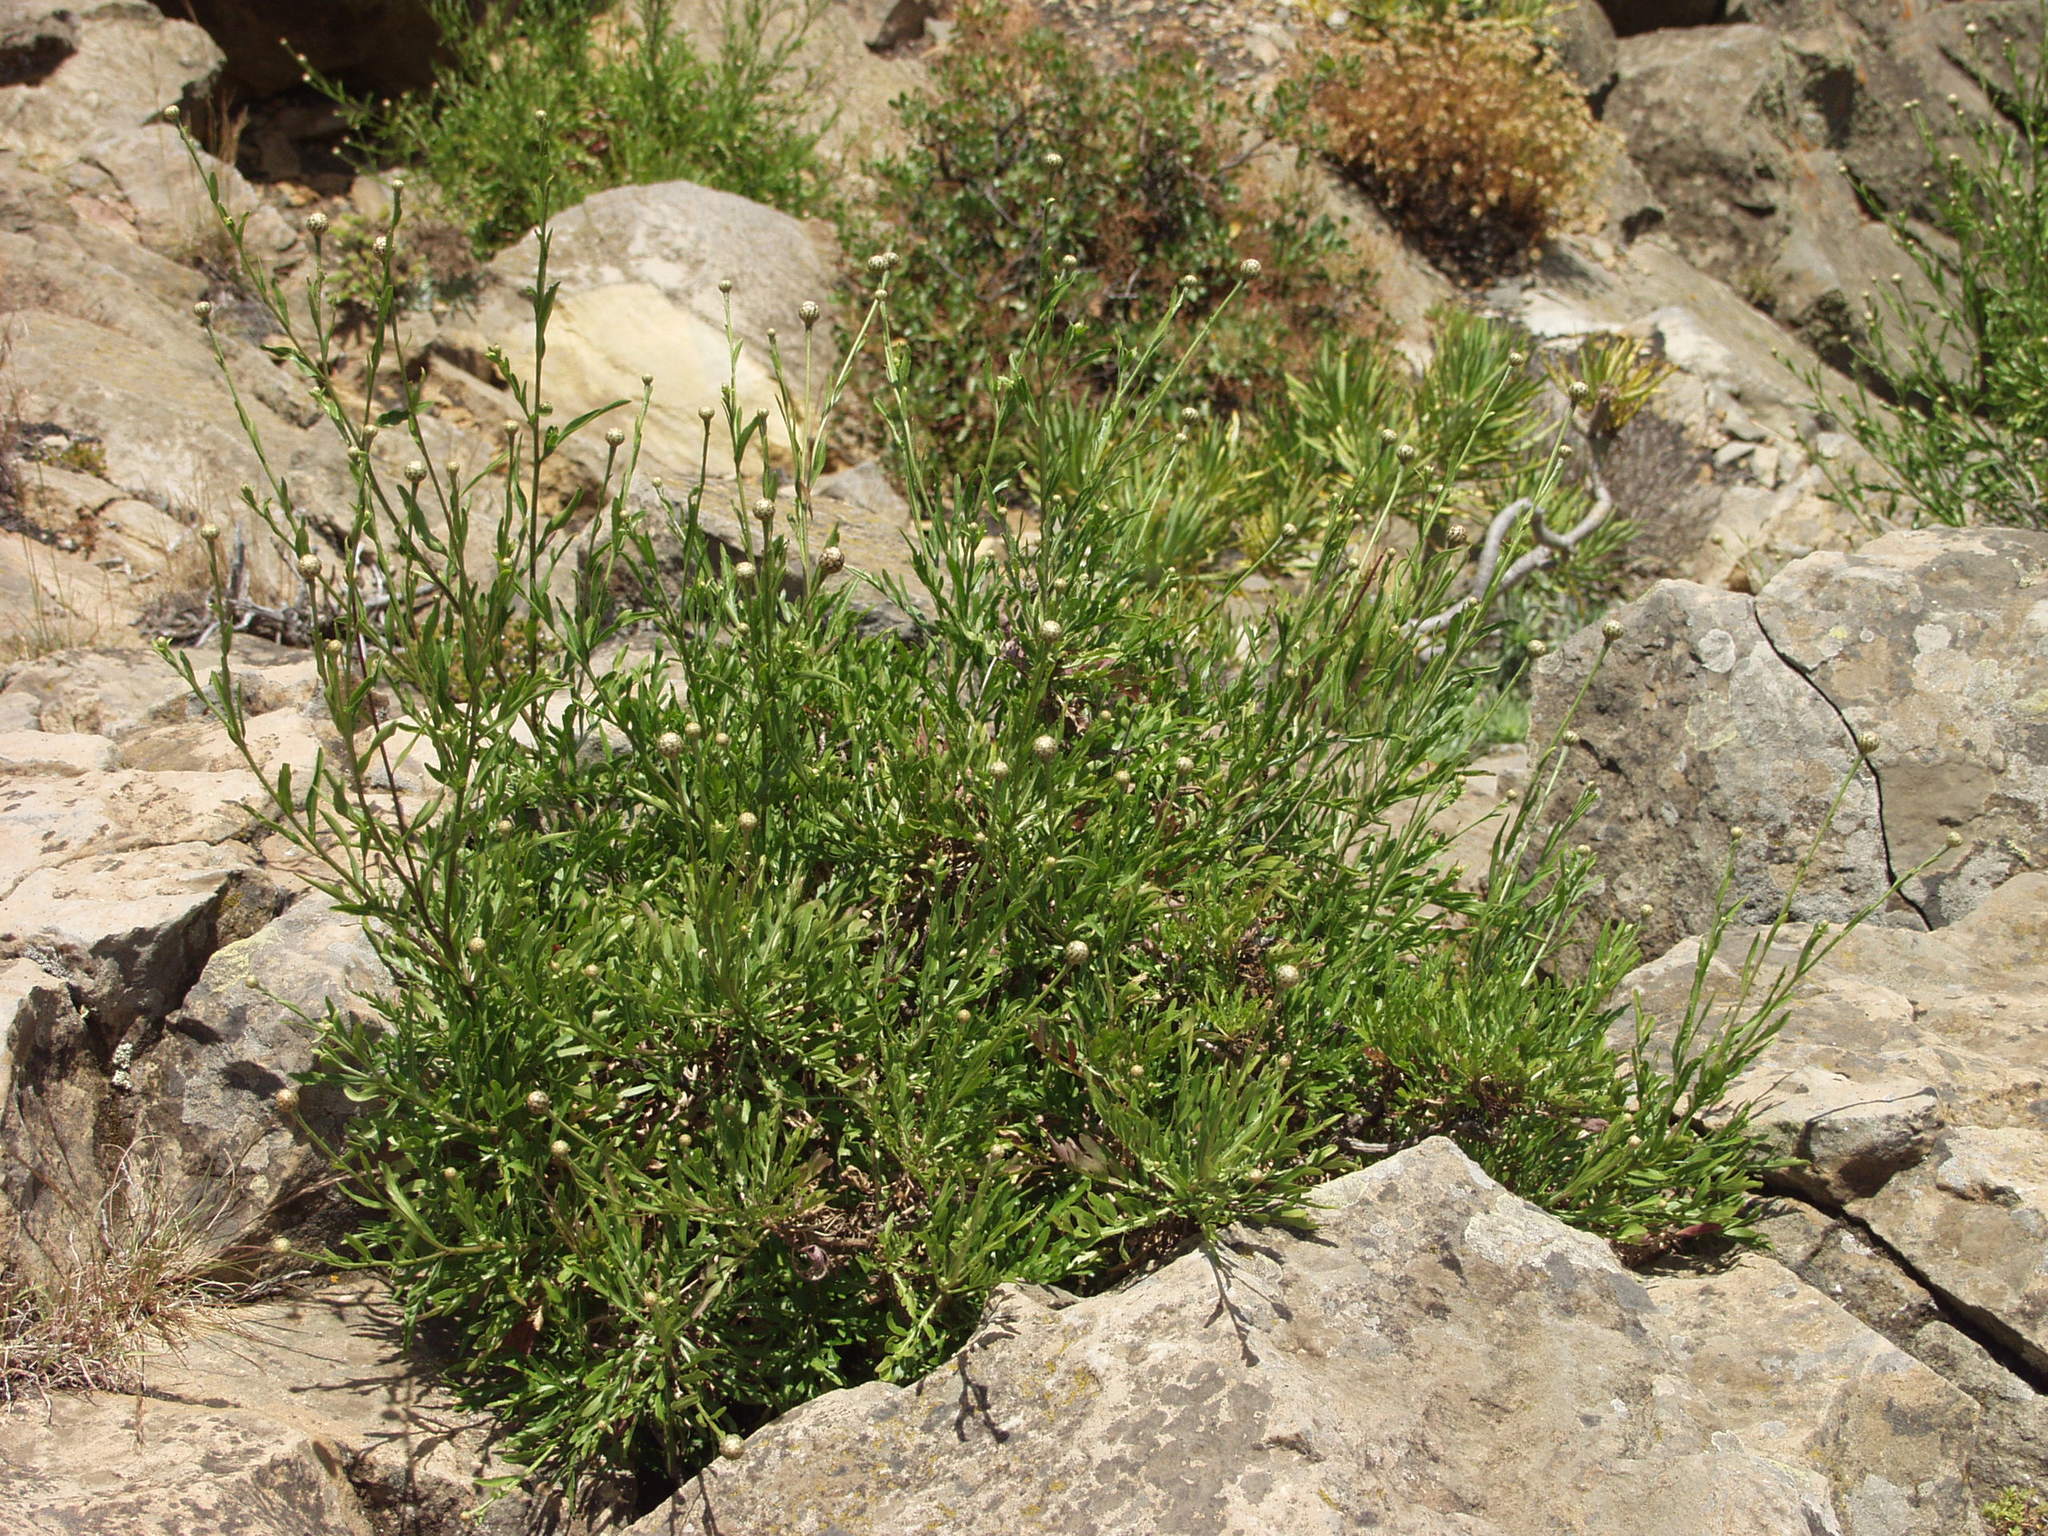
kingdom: Plantae
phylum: Tracheophyta
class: Magnoliopsida
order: Asterales
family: Asteraceae
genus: Cheirolophus
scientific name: Cheirolophus junonianus
